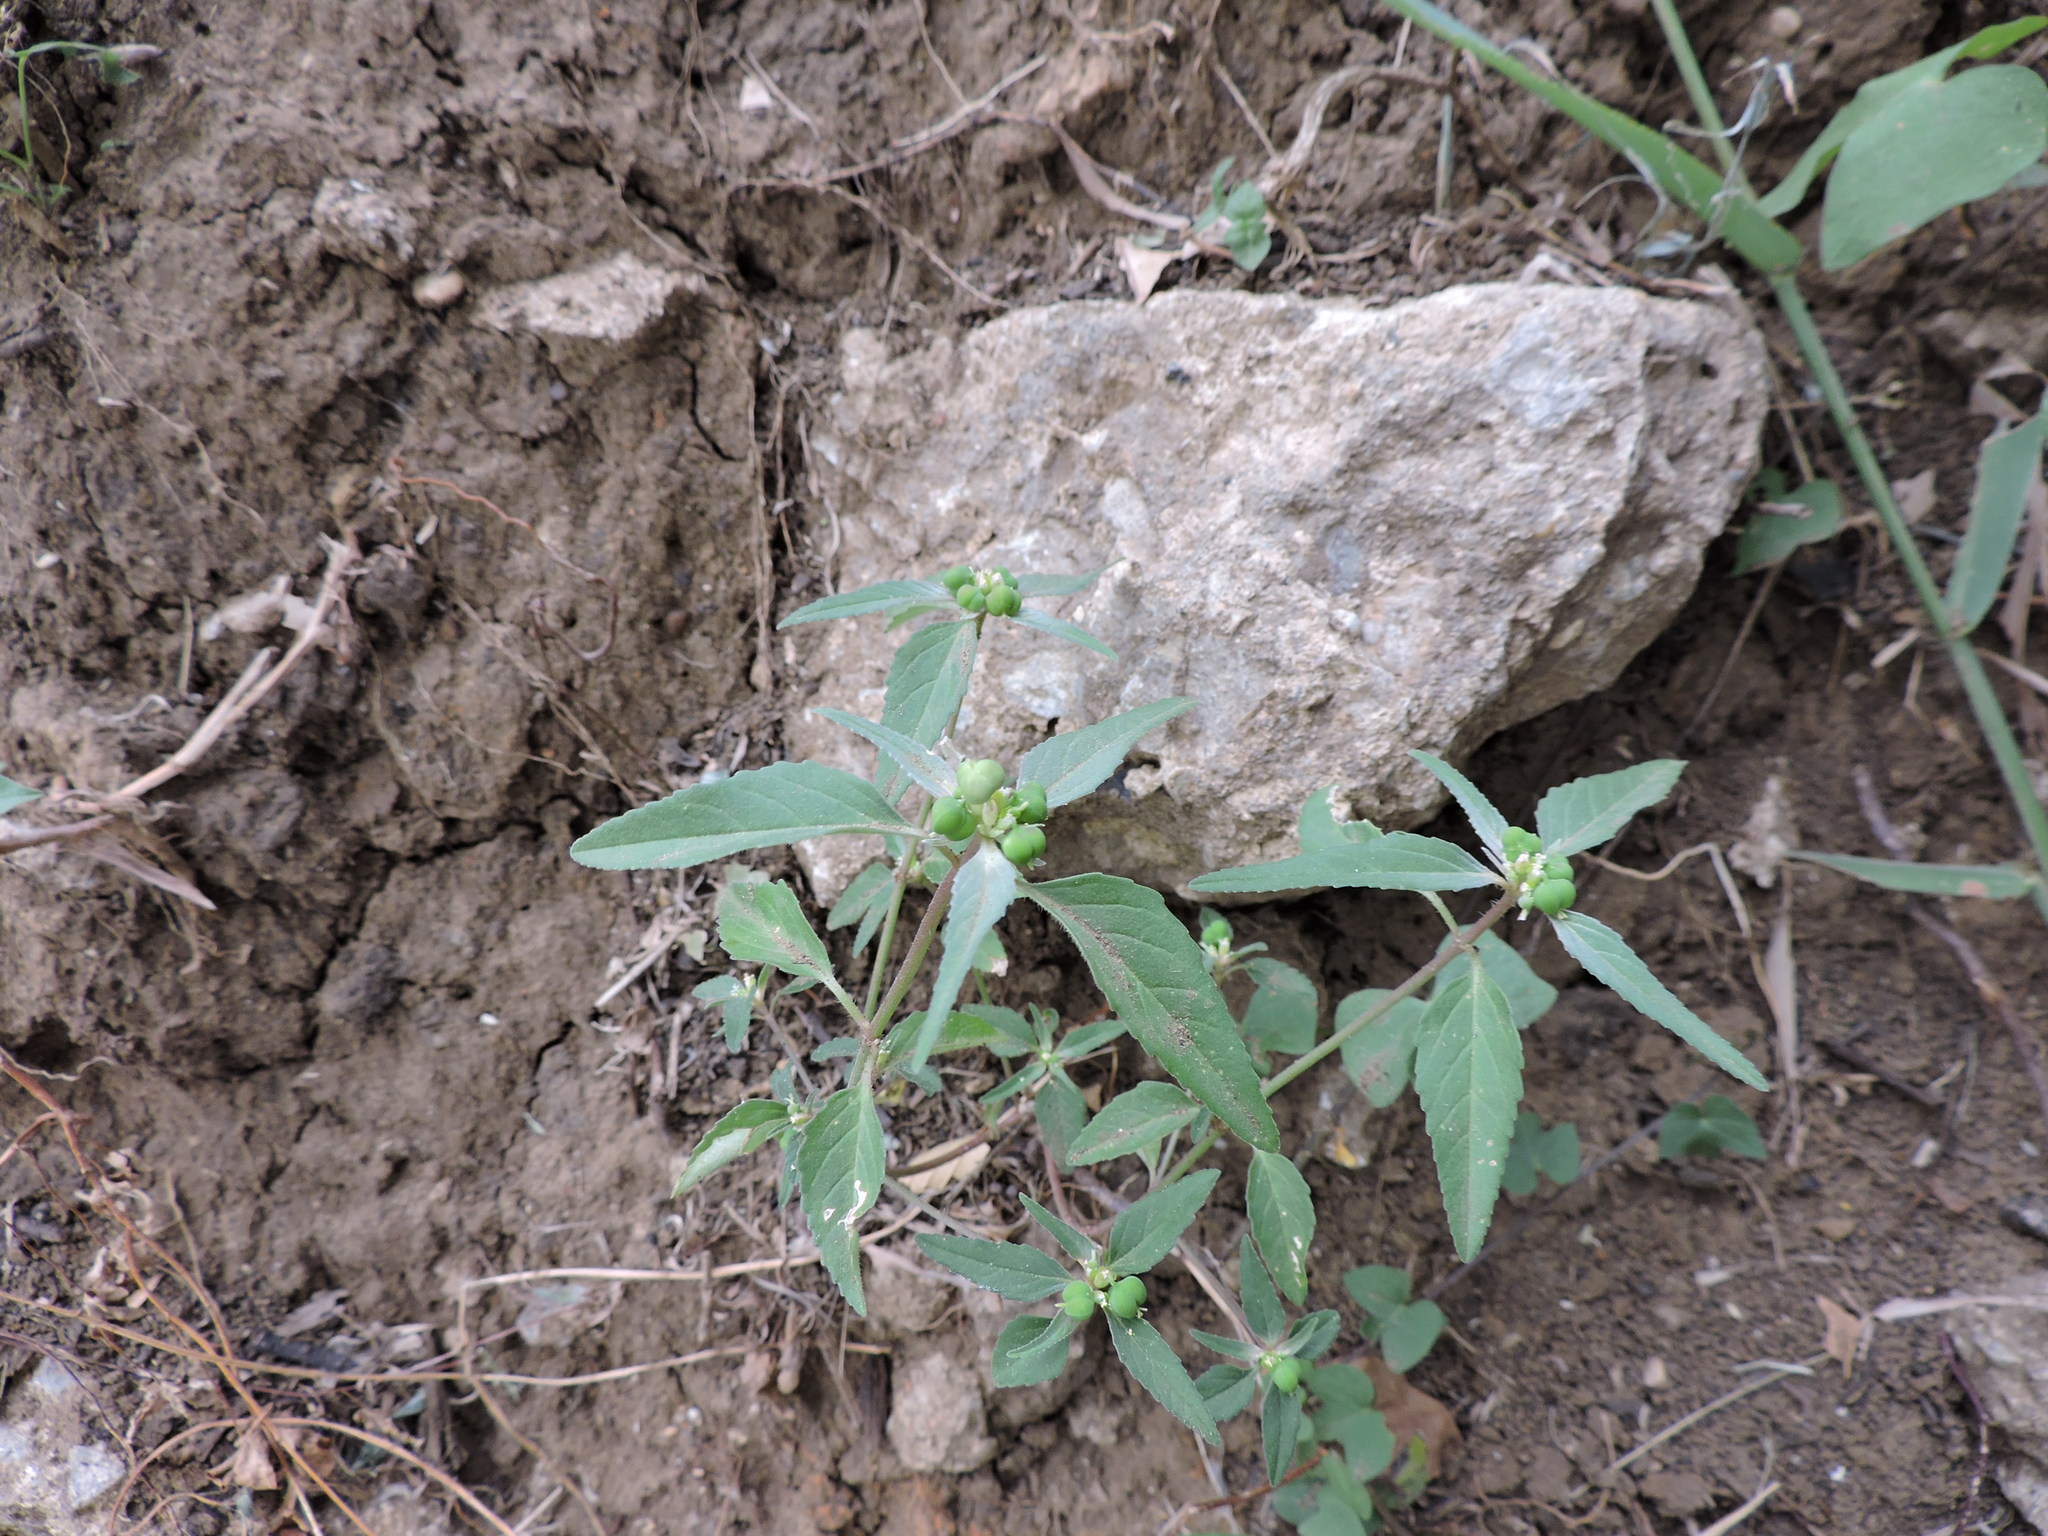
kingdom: Plantae
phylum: Tracheophyta
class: Magnoliopsida
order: Malpighiales
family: Euphorbiaceae
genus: Euphorbia
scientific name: Euphorbia dentata
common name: Dentate spurge
